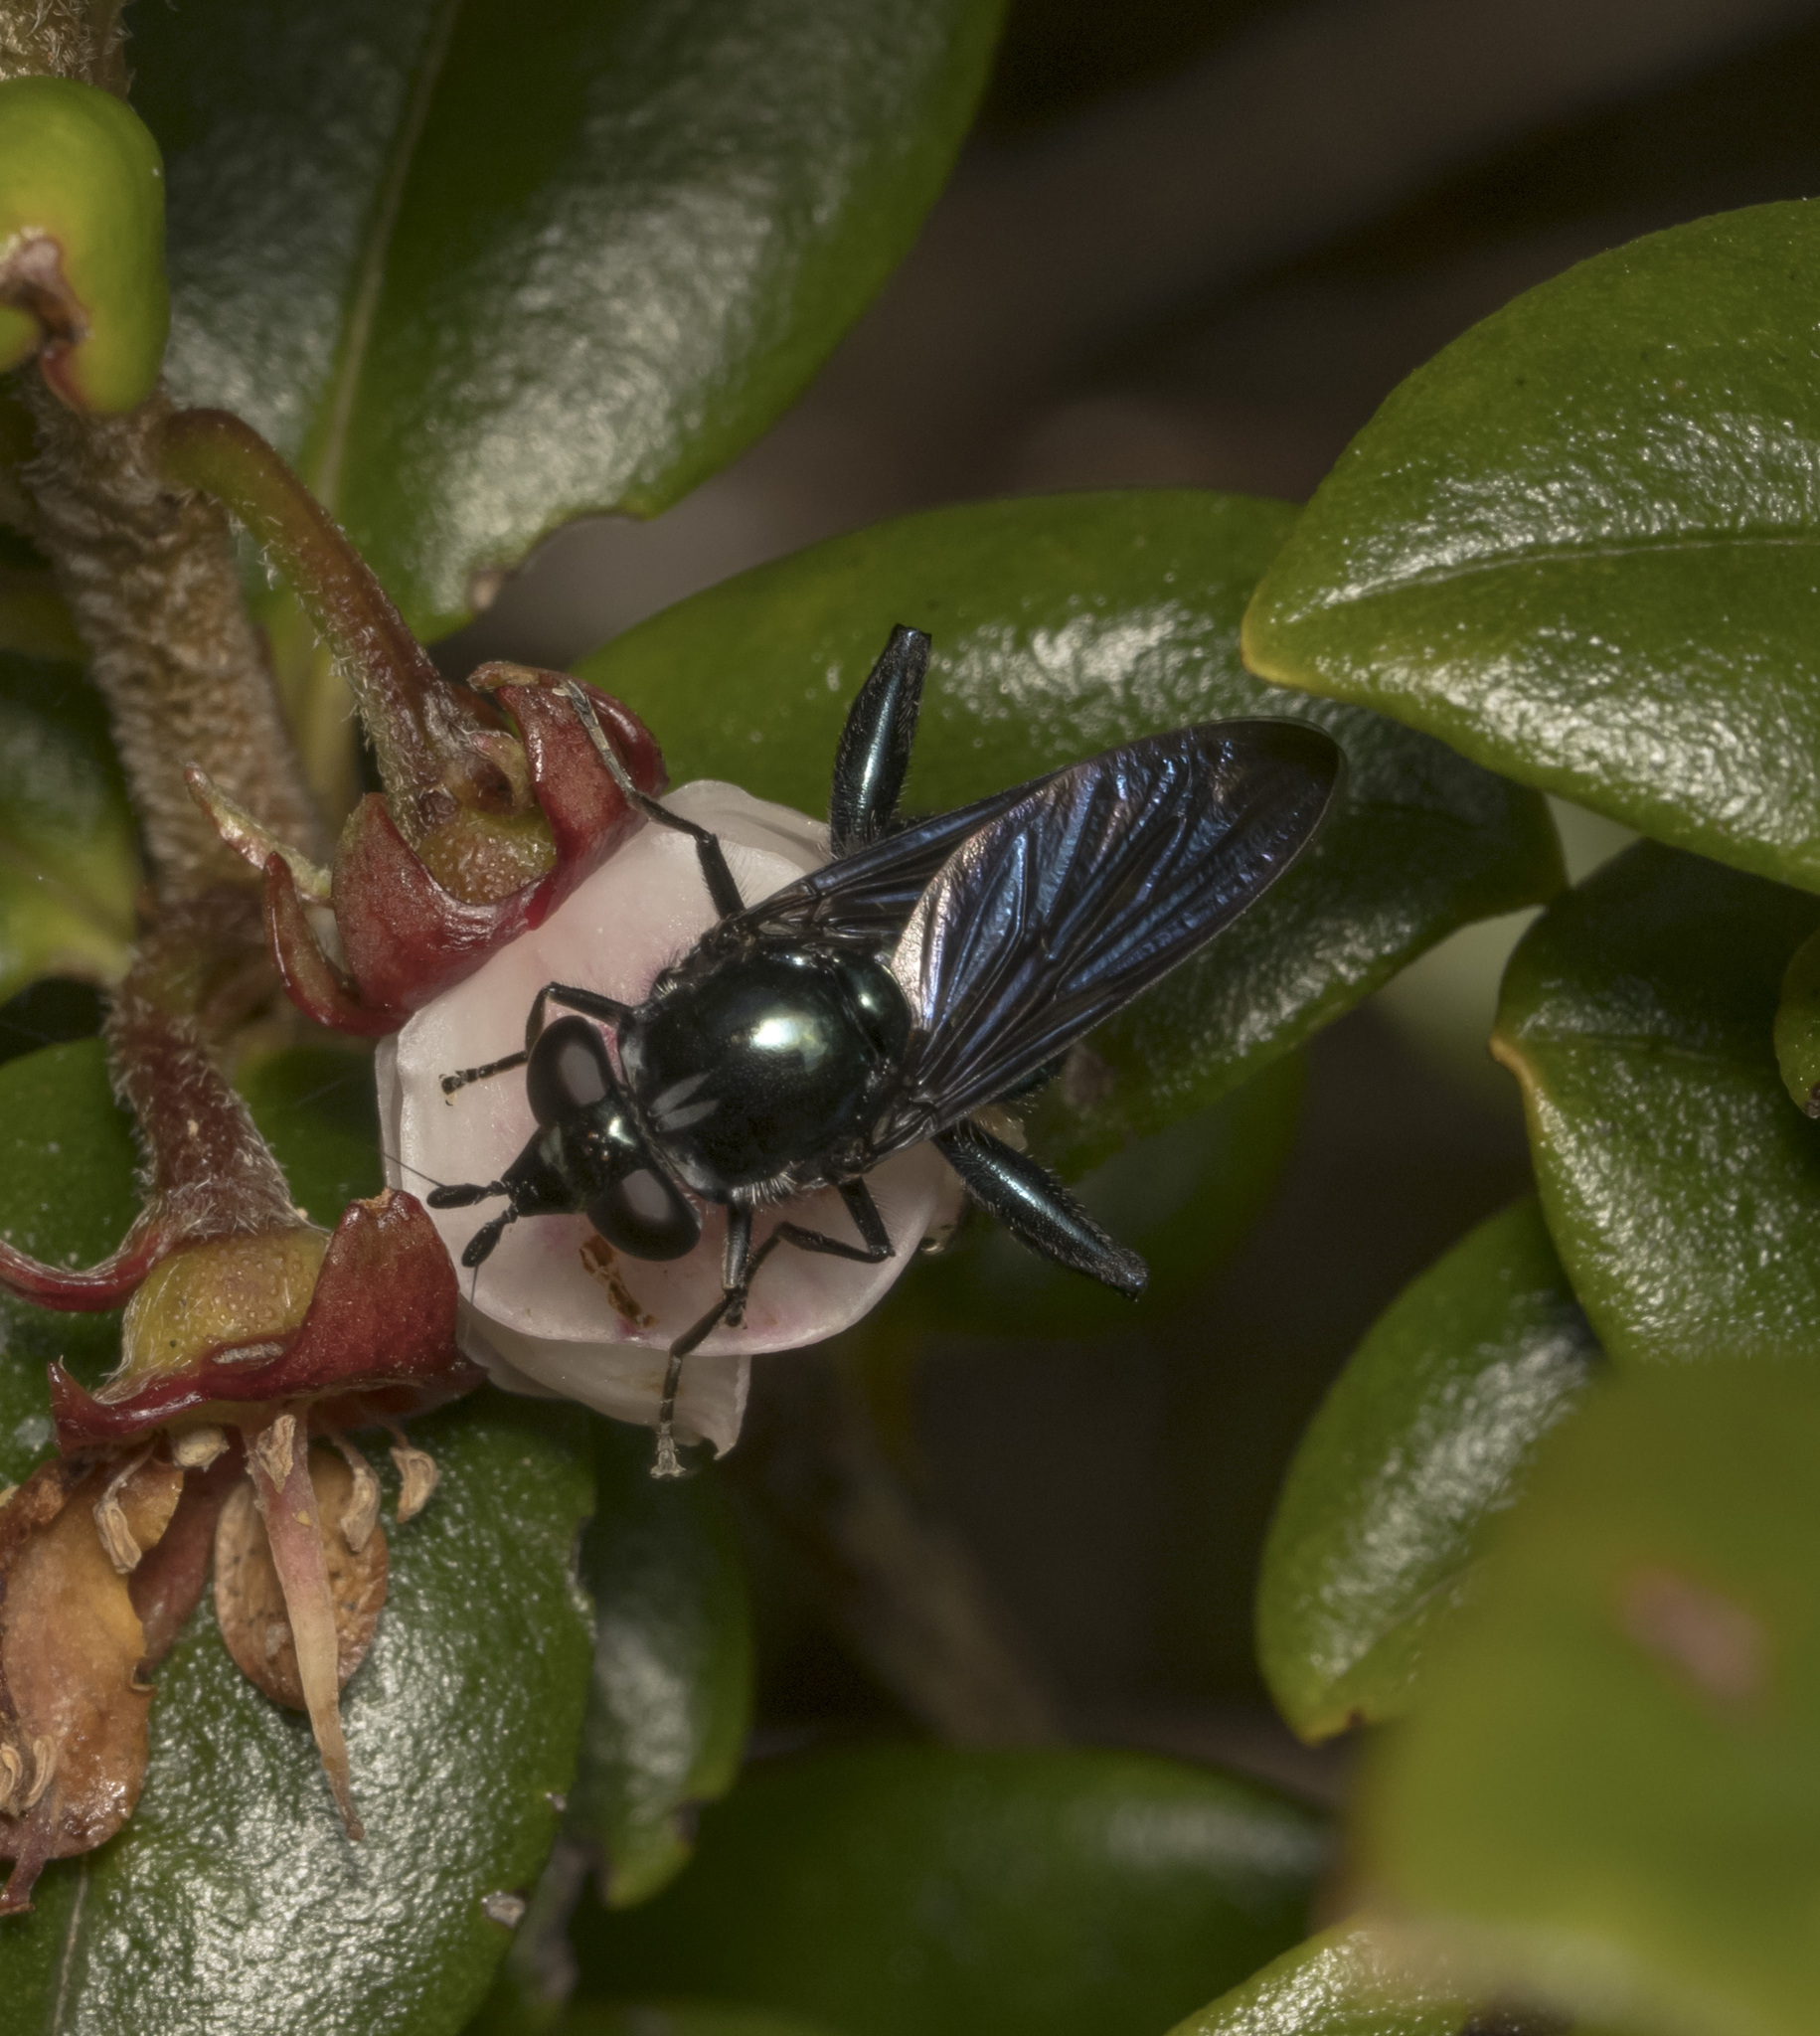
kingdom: Animalia
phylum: Arthropoda
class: Insecta
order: Diptera
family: Syrphidae
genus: Stilbosoma
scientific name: Stilbosoma cyaneum
